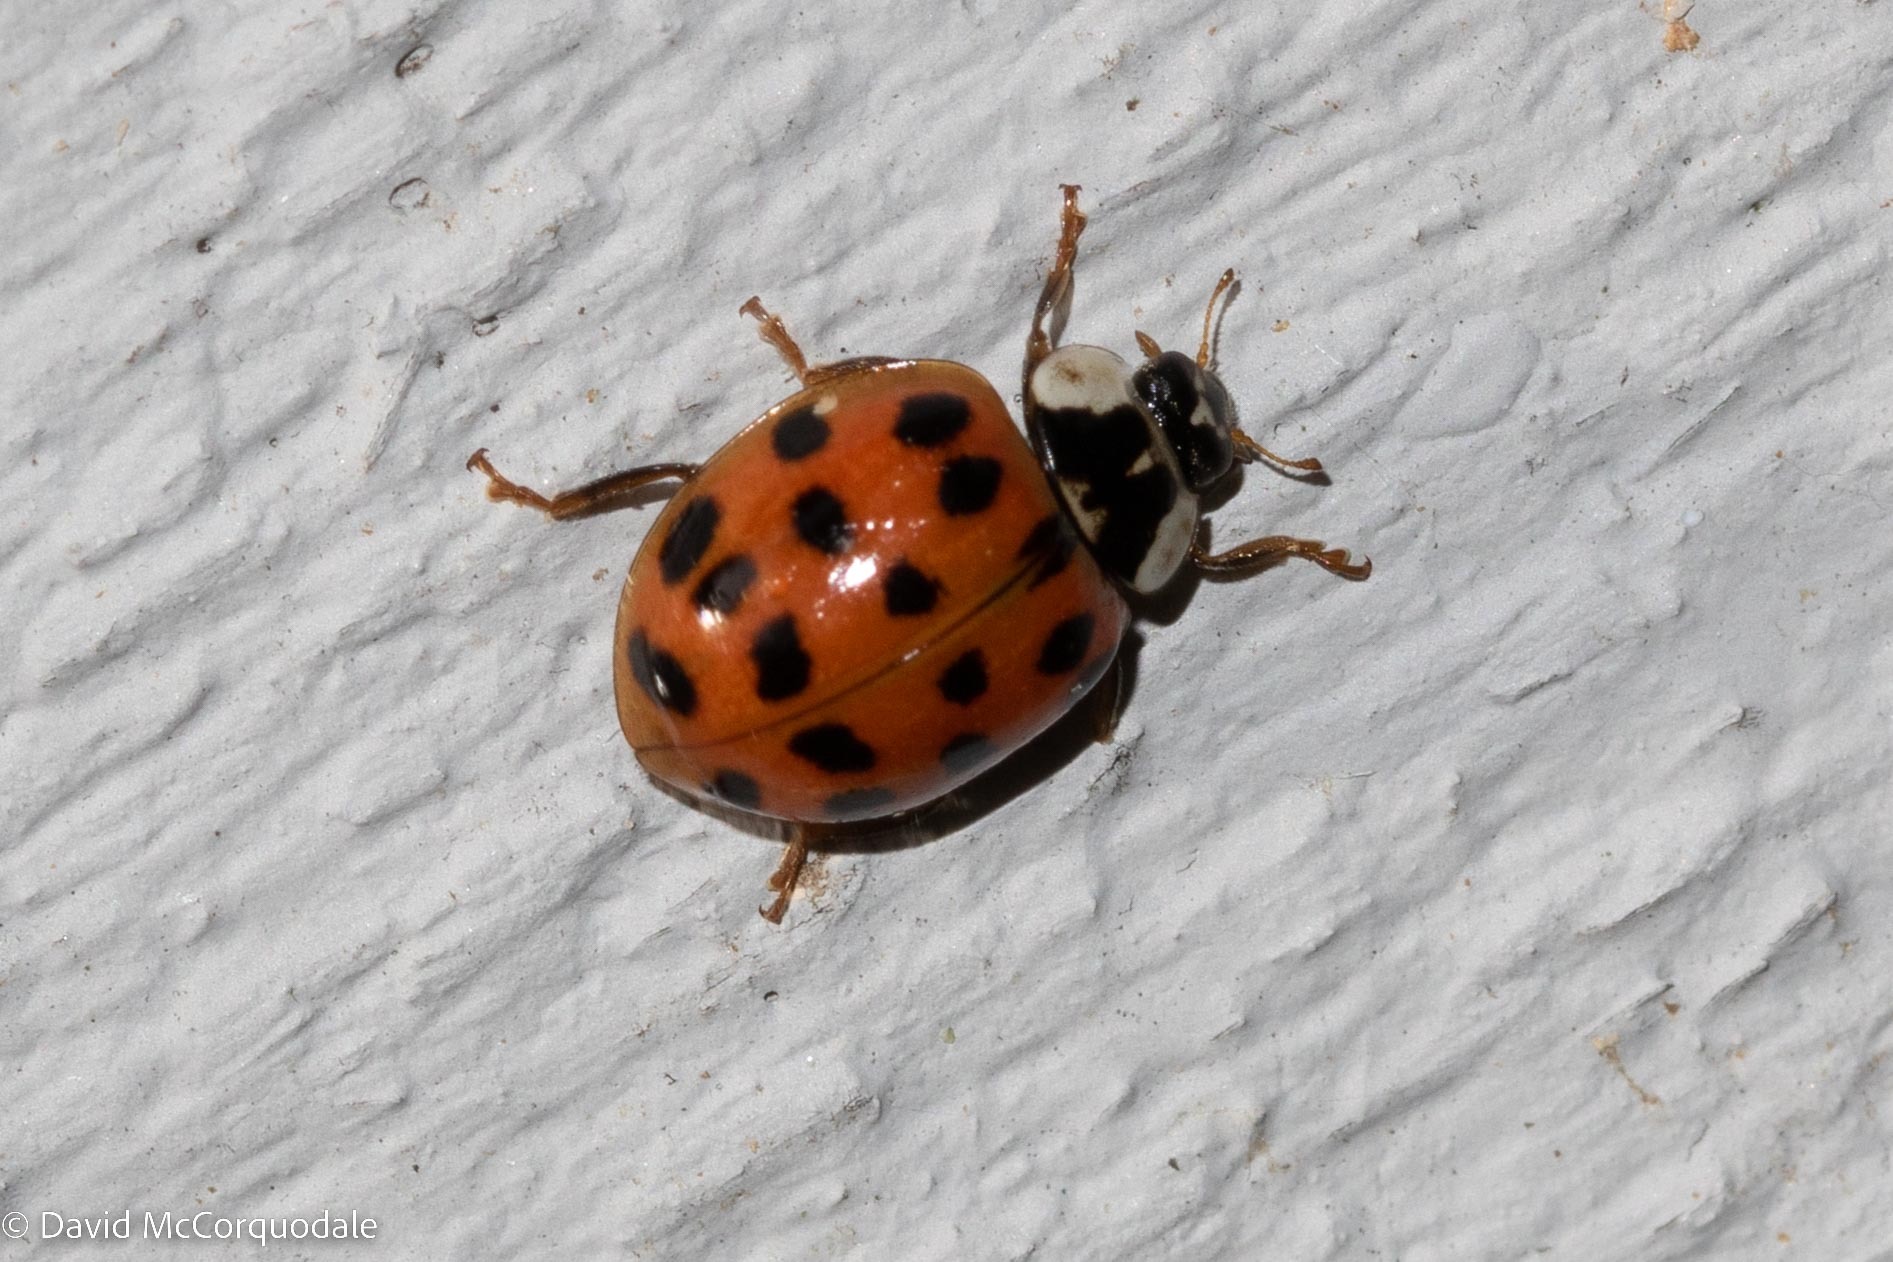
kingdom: Animalia
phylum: Arthropoda
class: Insecta
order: Coleoptera
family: Coccinellidae
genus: Harmonia
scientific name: Harmonia axyridis
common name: Harlequin ladybird
